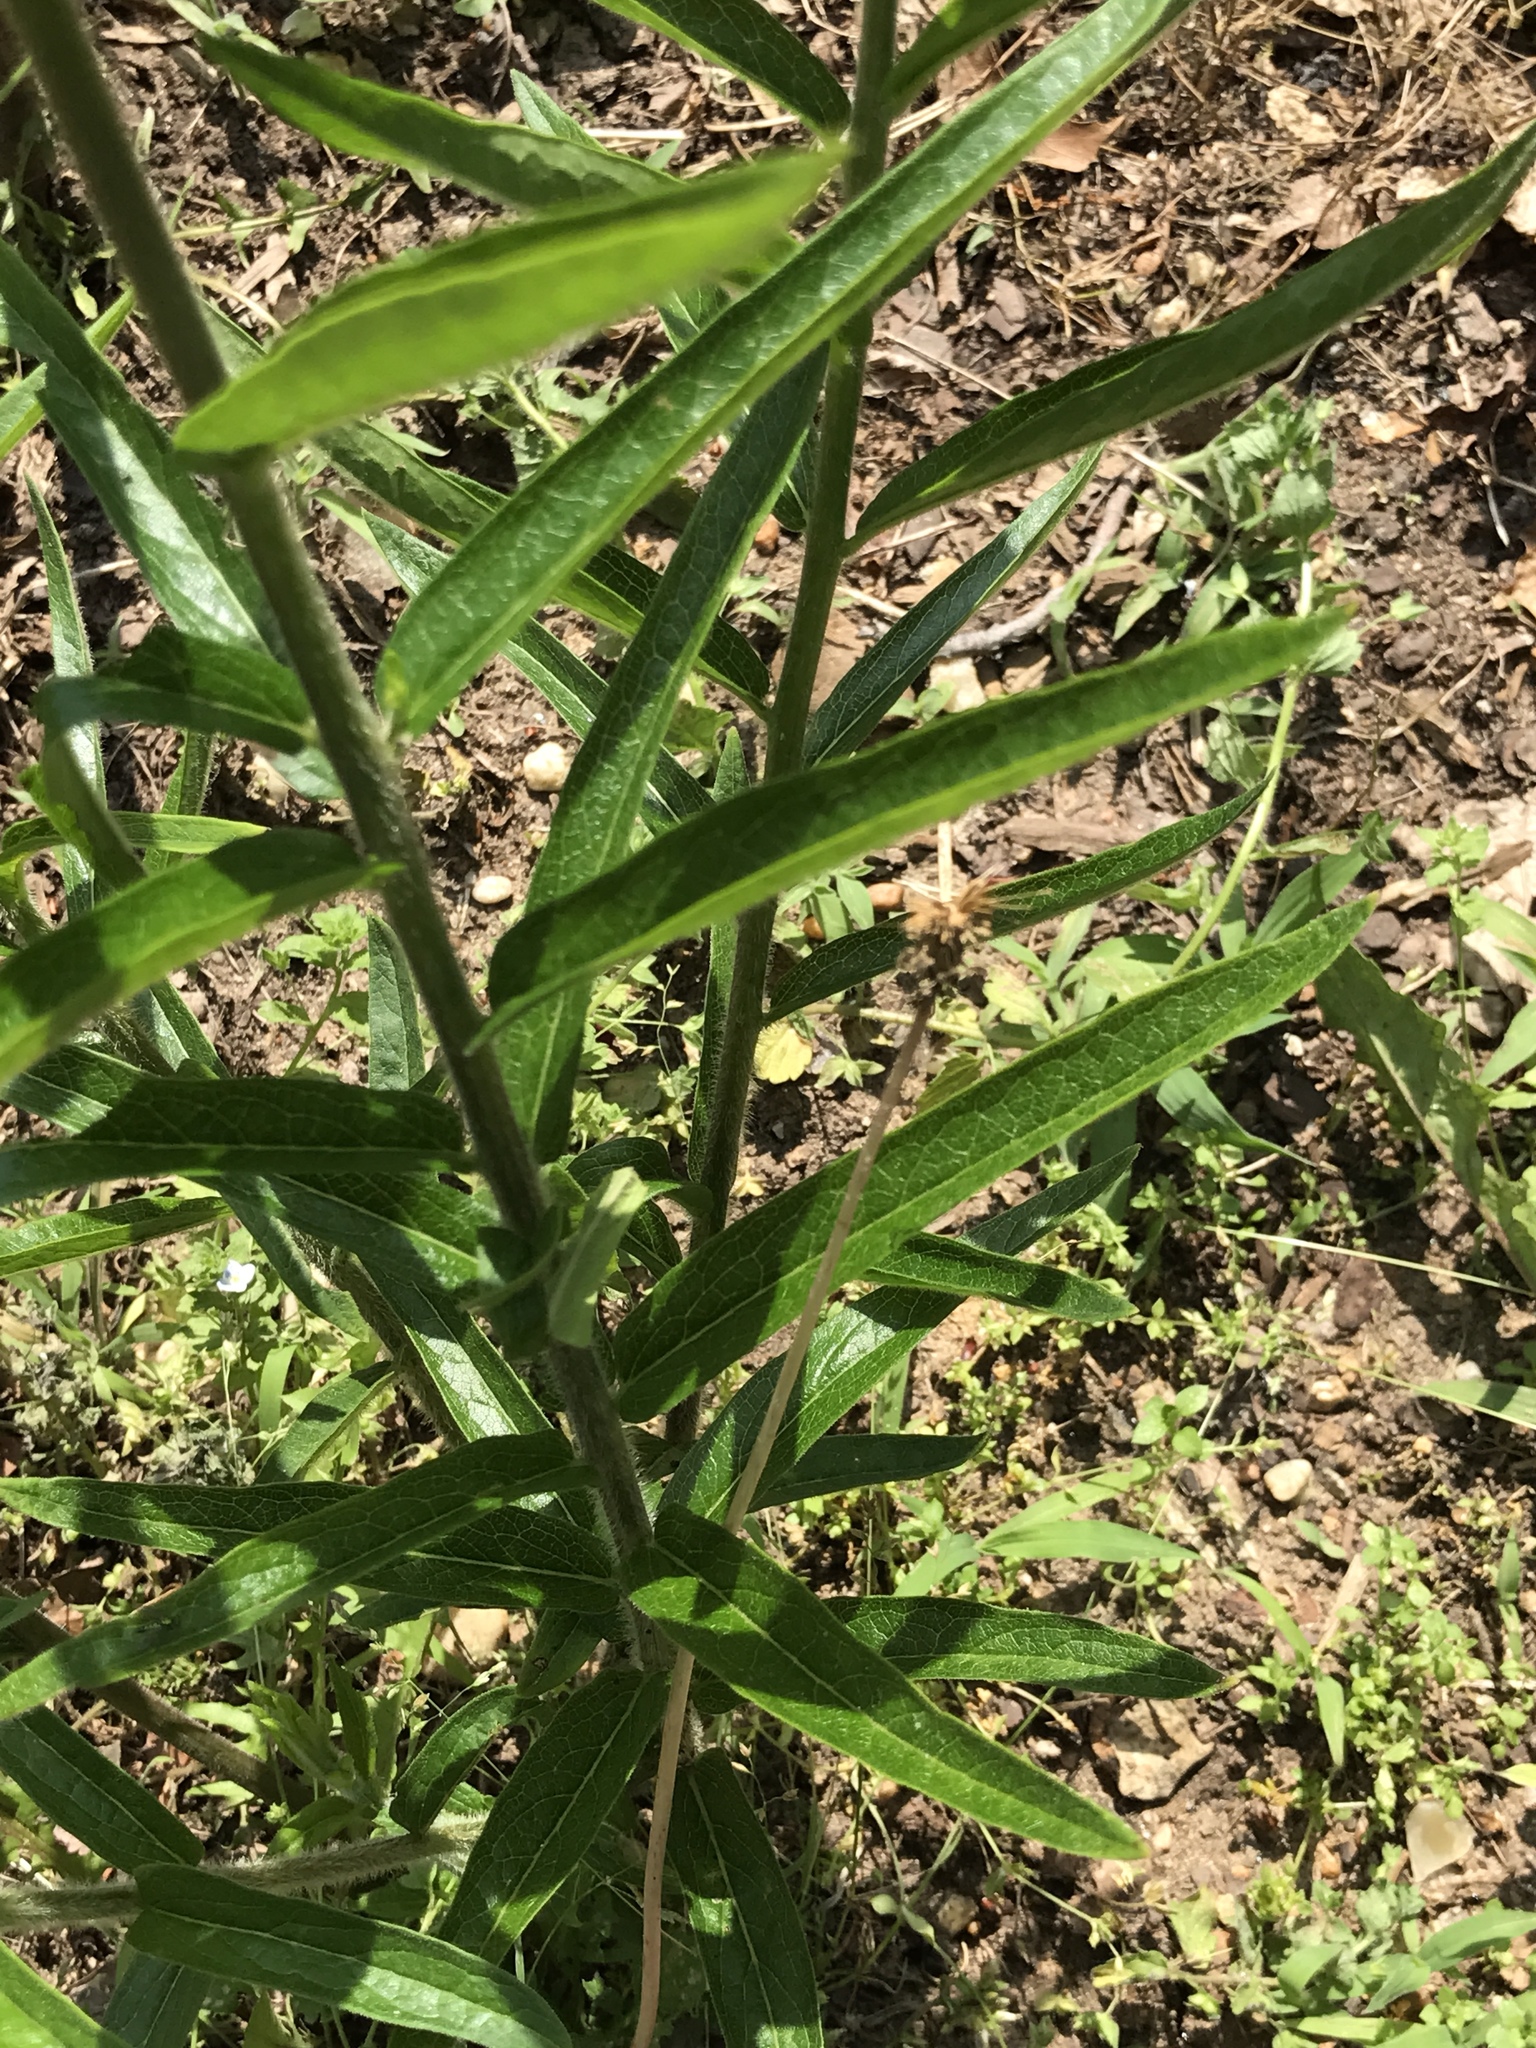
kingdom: Plantae
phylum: Tracheophyta
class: Magnoliopsida
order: Gentianales
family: Apocynaceae
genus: Asclepias
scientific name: Asclepias tuberosa
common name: Butterfly milkweed
